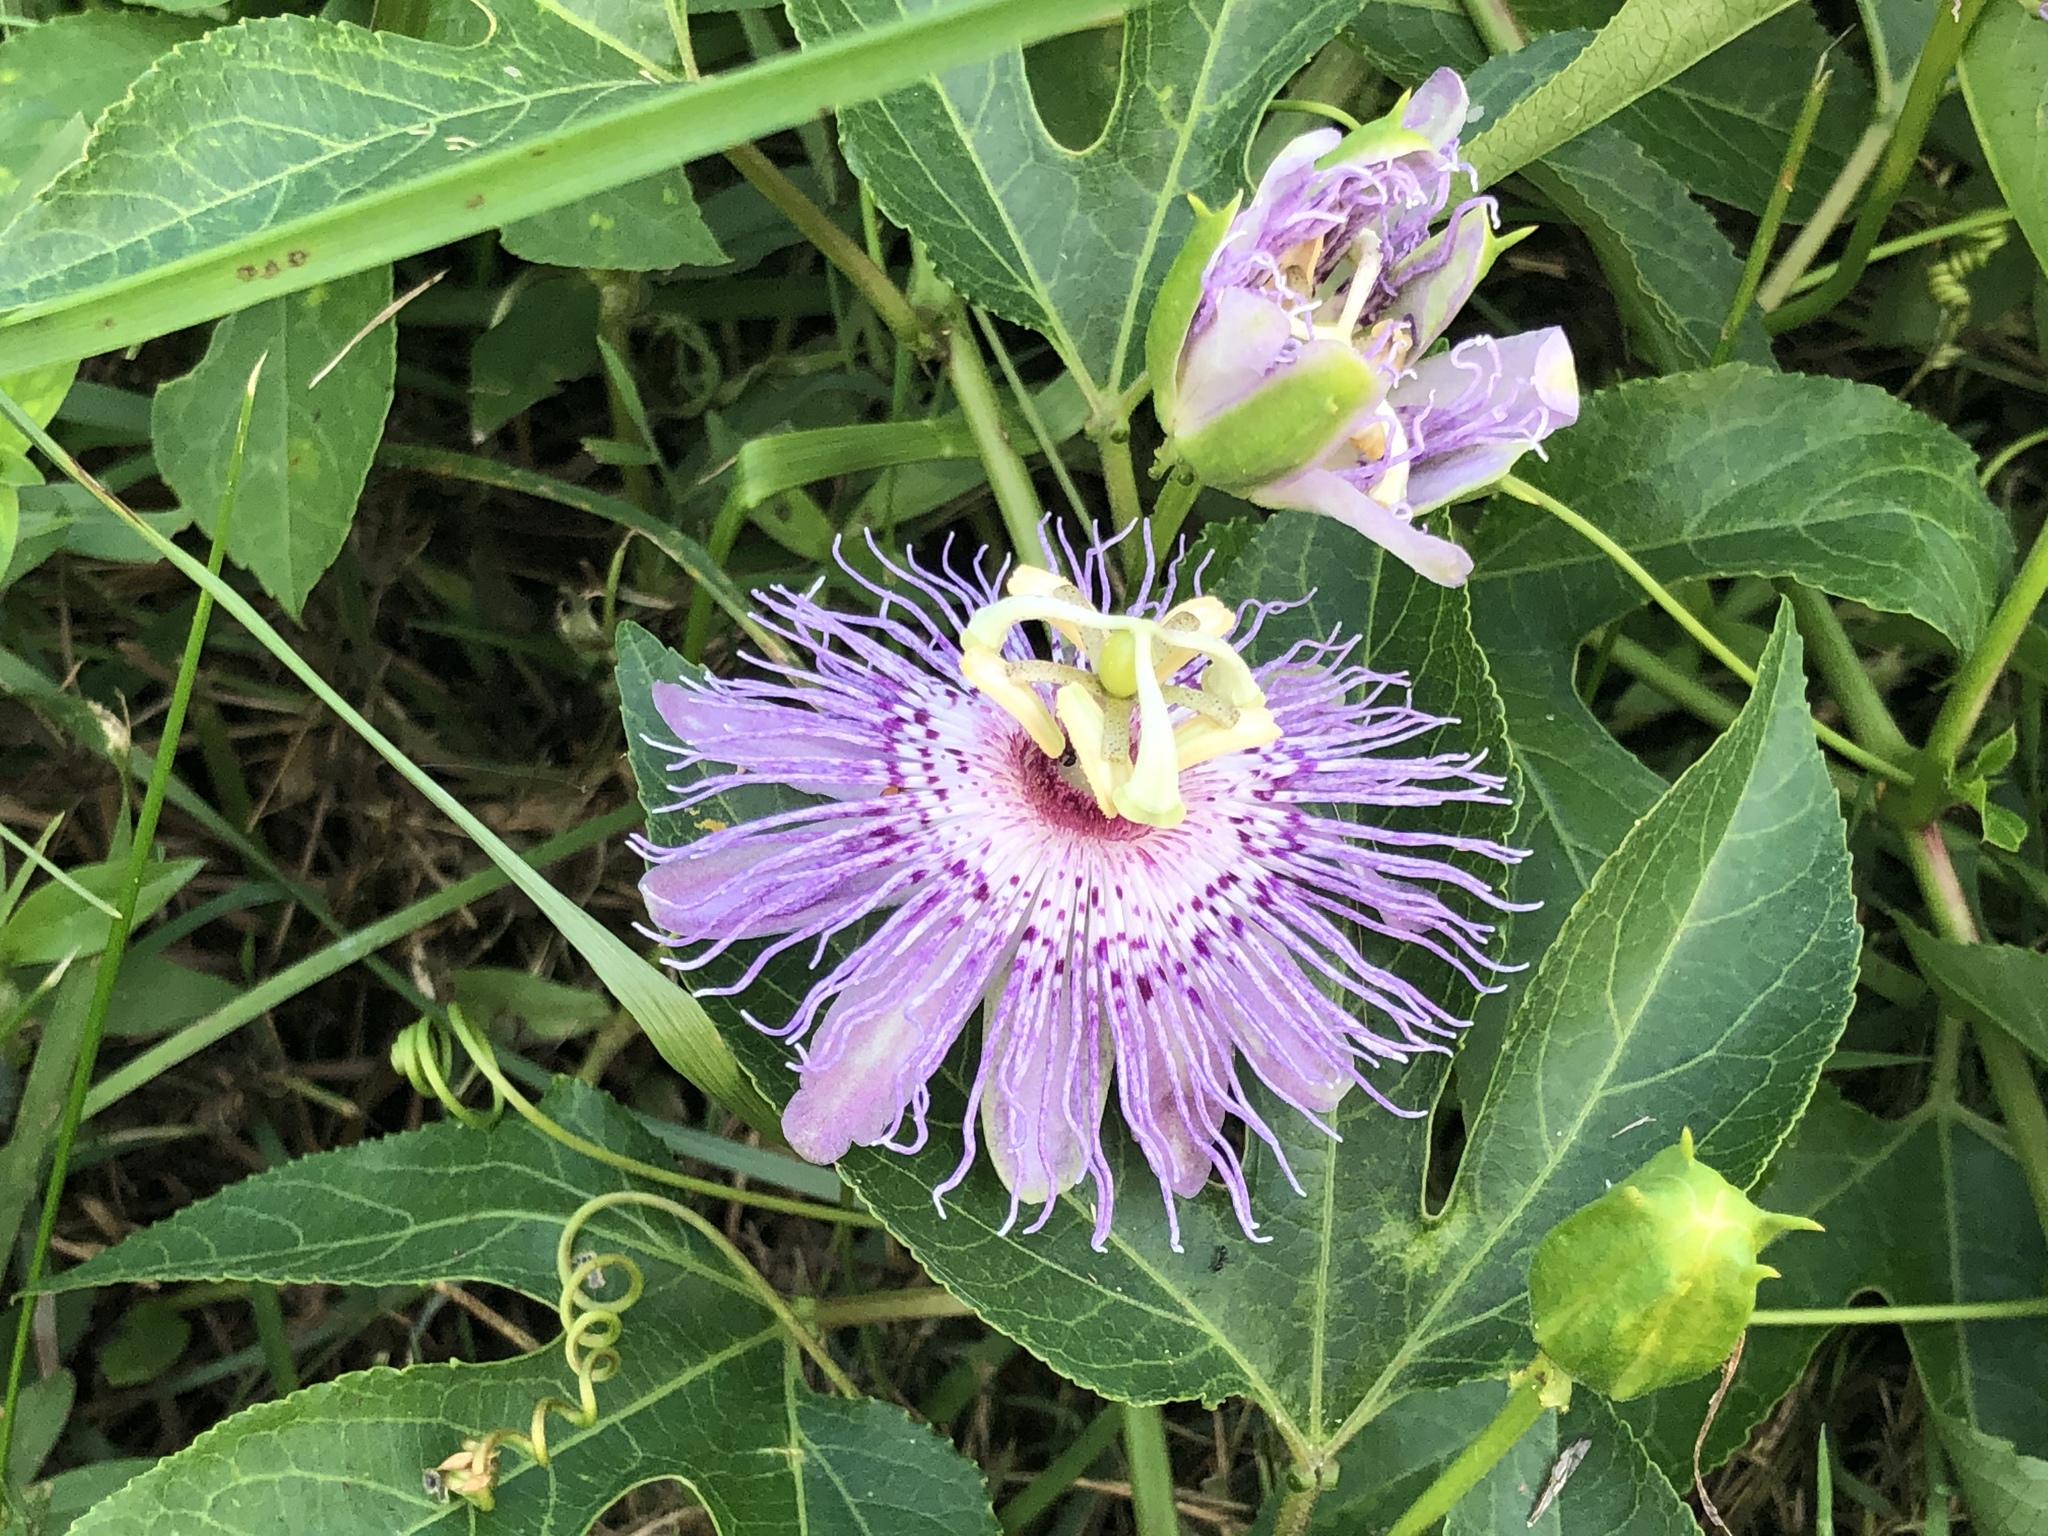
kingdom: Plantae
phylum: Tracheophyta
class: Magnoliopsida
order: Malpighiales
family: Passifloraceae
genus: Passiflora
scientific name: Passiflora incarnata
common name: Apricot-vine
